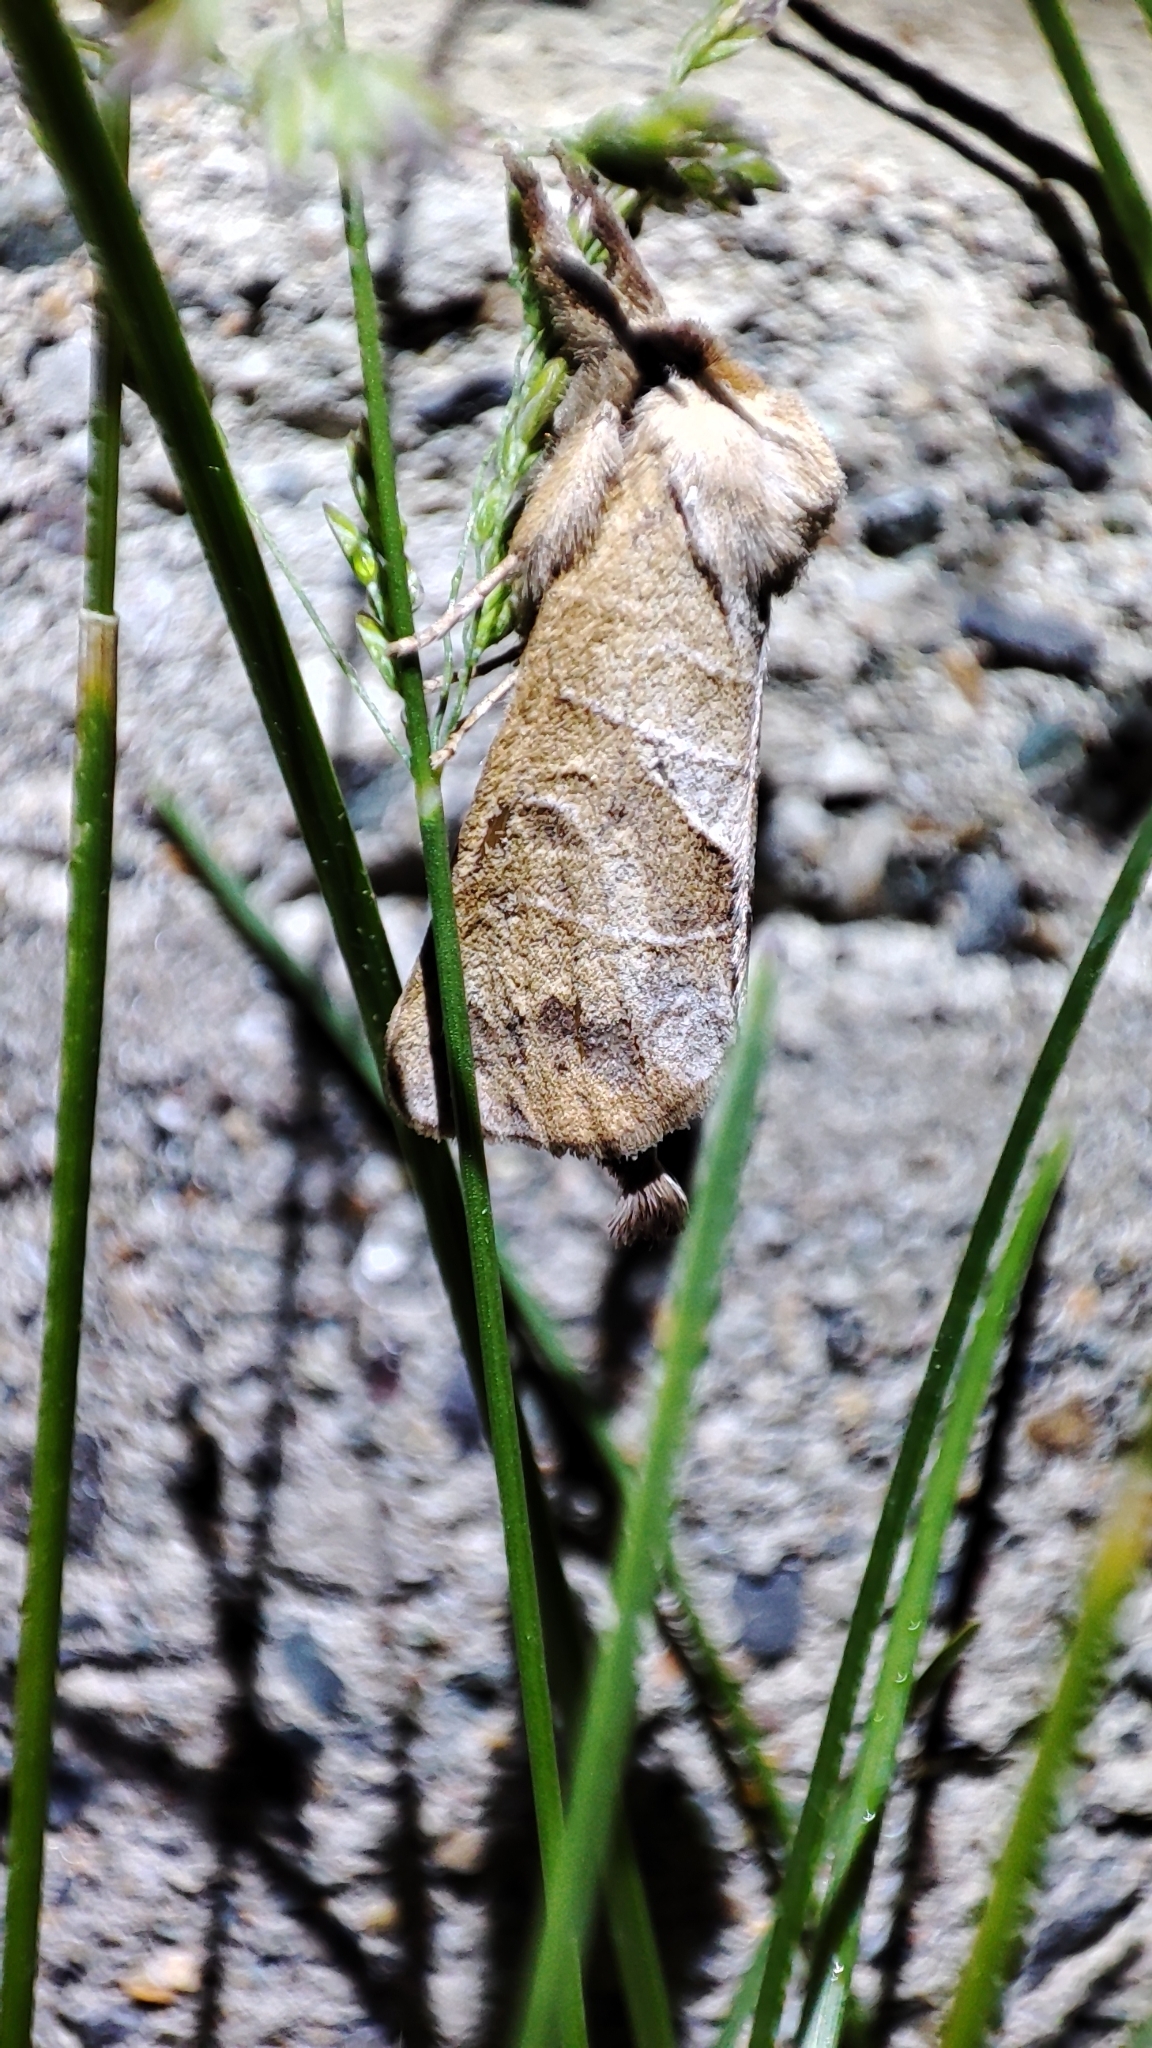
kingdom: Animalia
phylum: Arthropoda
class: Insecta
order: Lepidoptera
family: Notodontidae
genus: Clostera
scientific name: Clostera anastomosis
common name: Poplar tip moth
